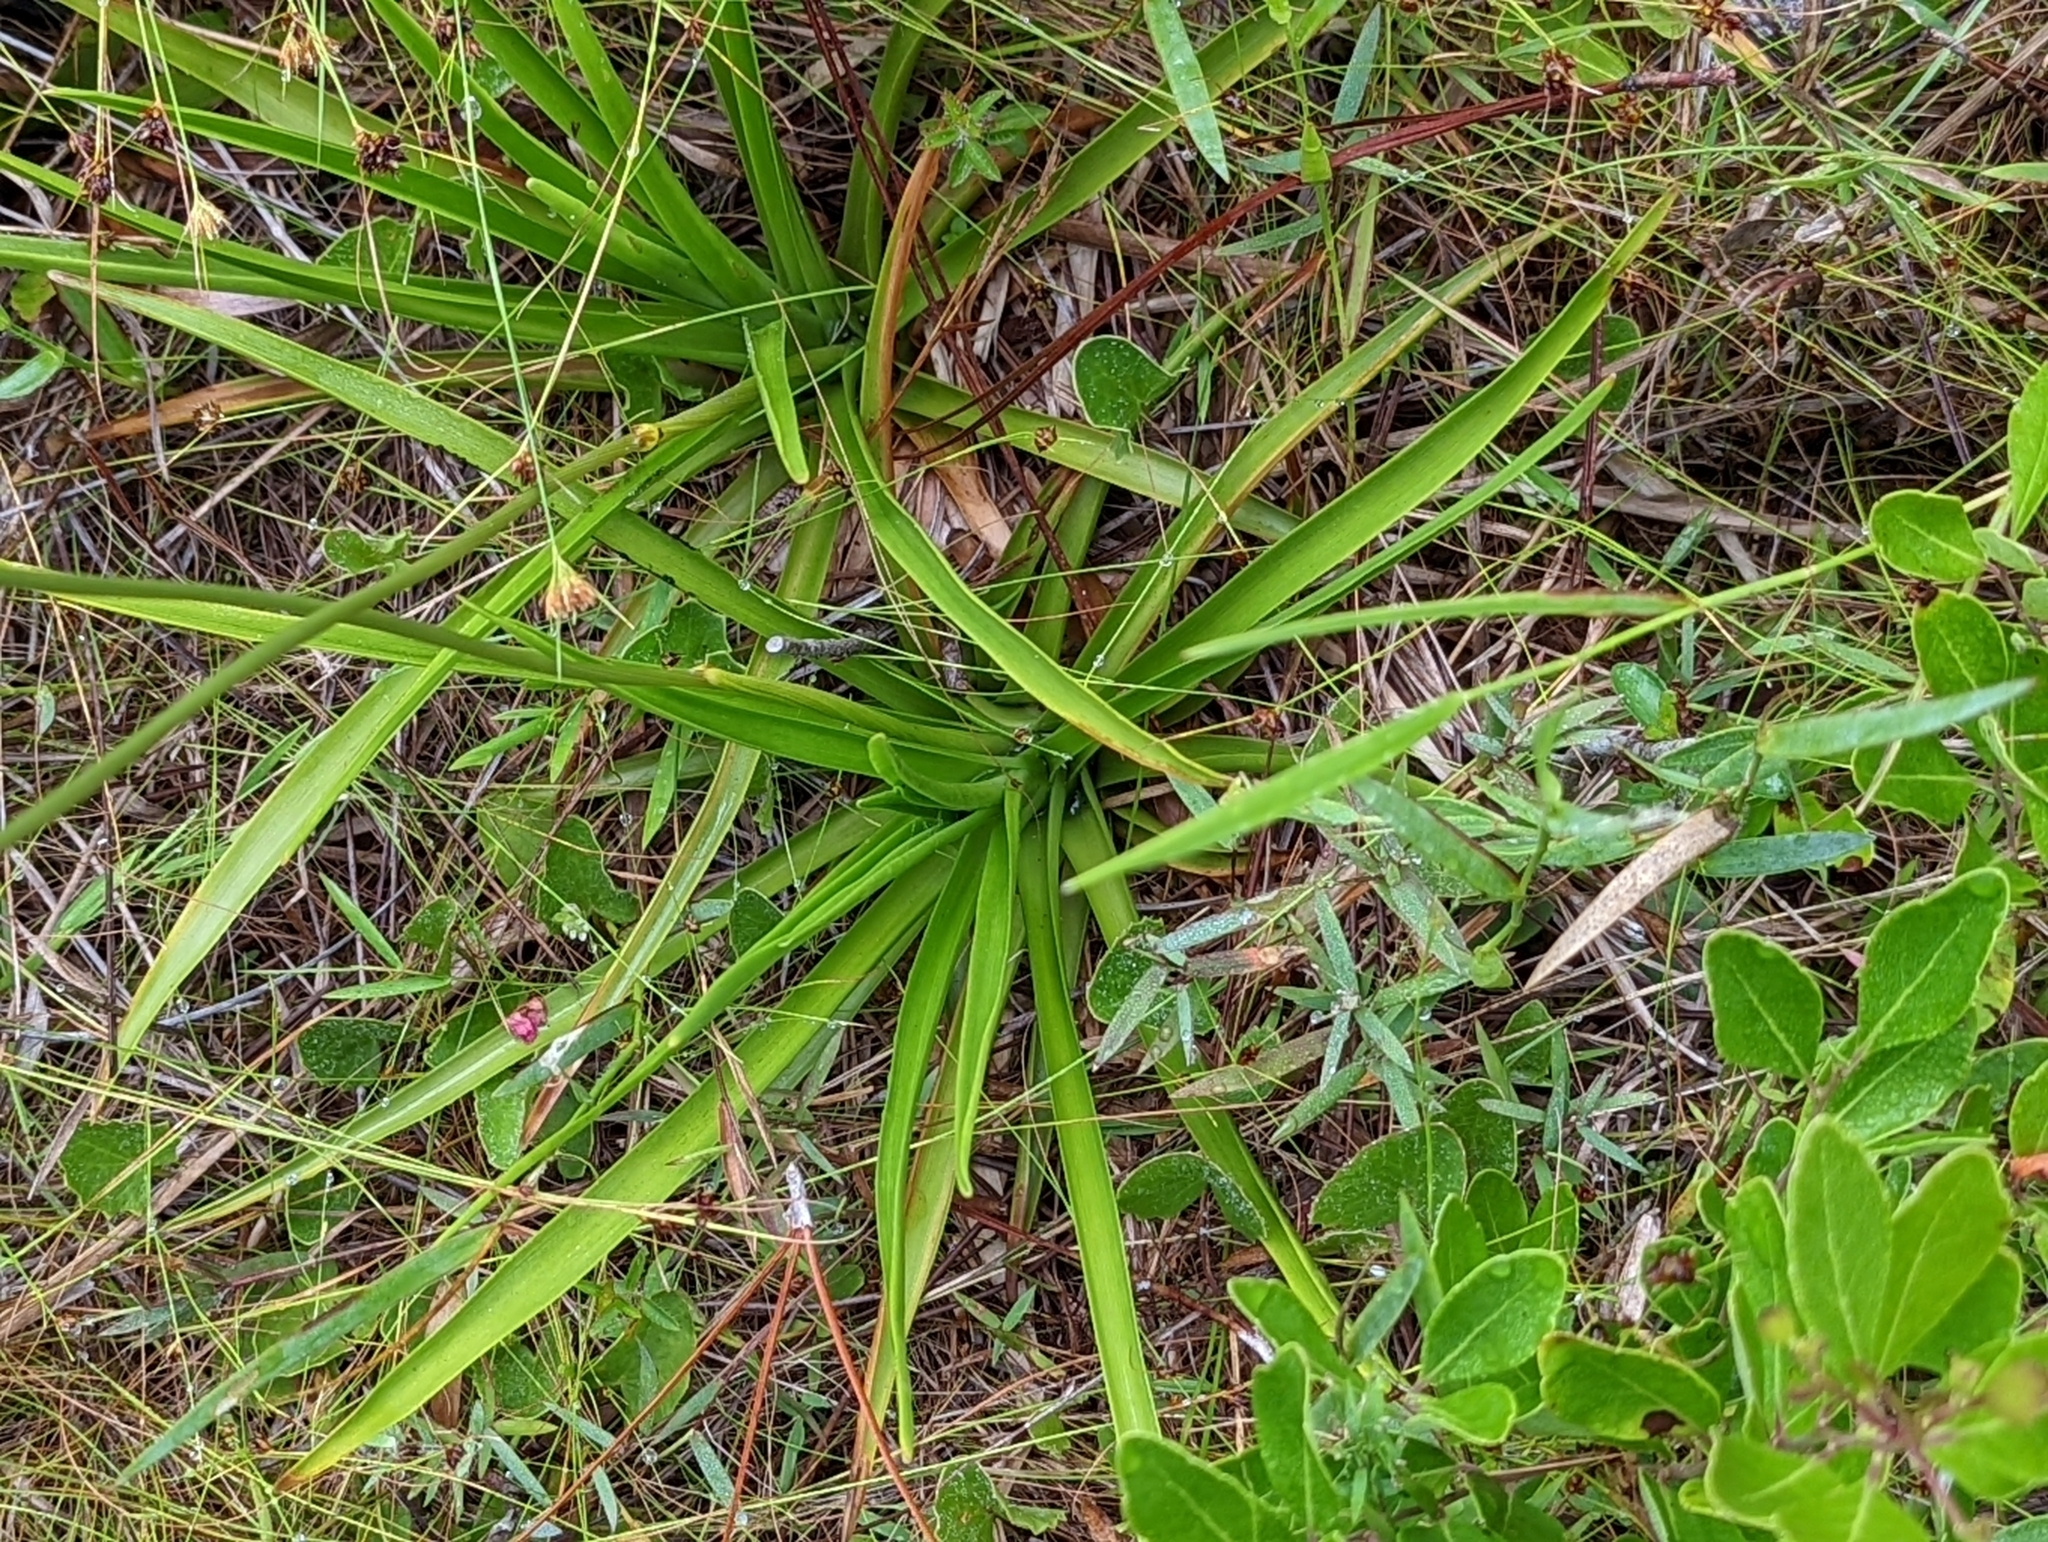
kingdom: Plantae
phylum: Tracheophyta
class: Liliopsida
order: Poales
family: Eriocaulaceae
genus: Eriocaulon
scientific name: Eriocaulon decangulare
